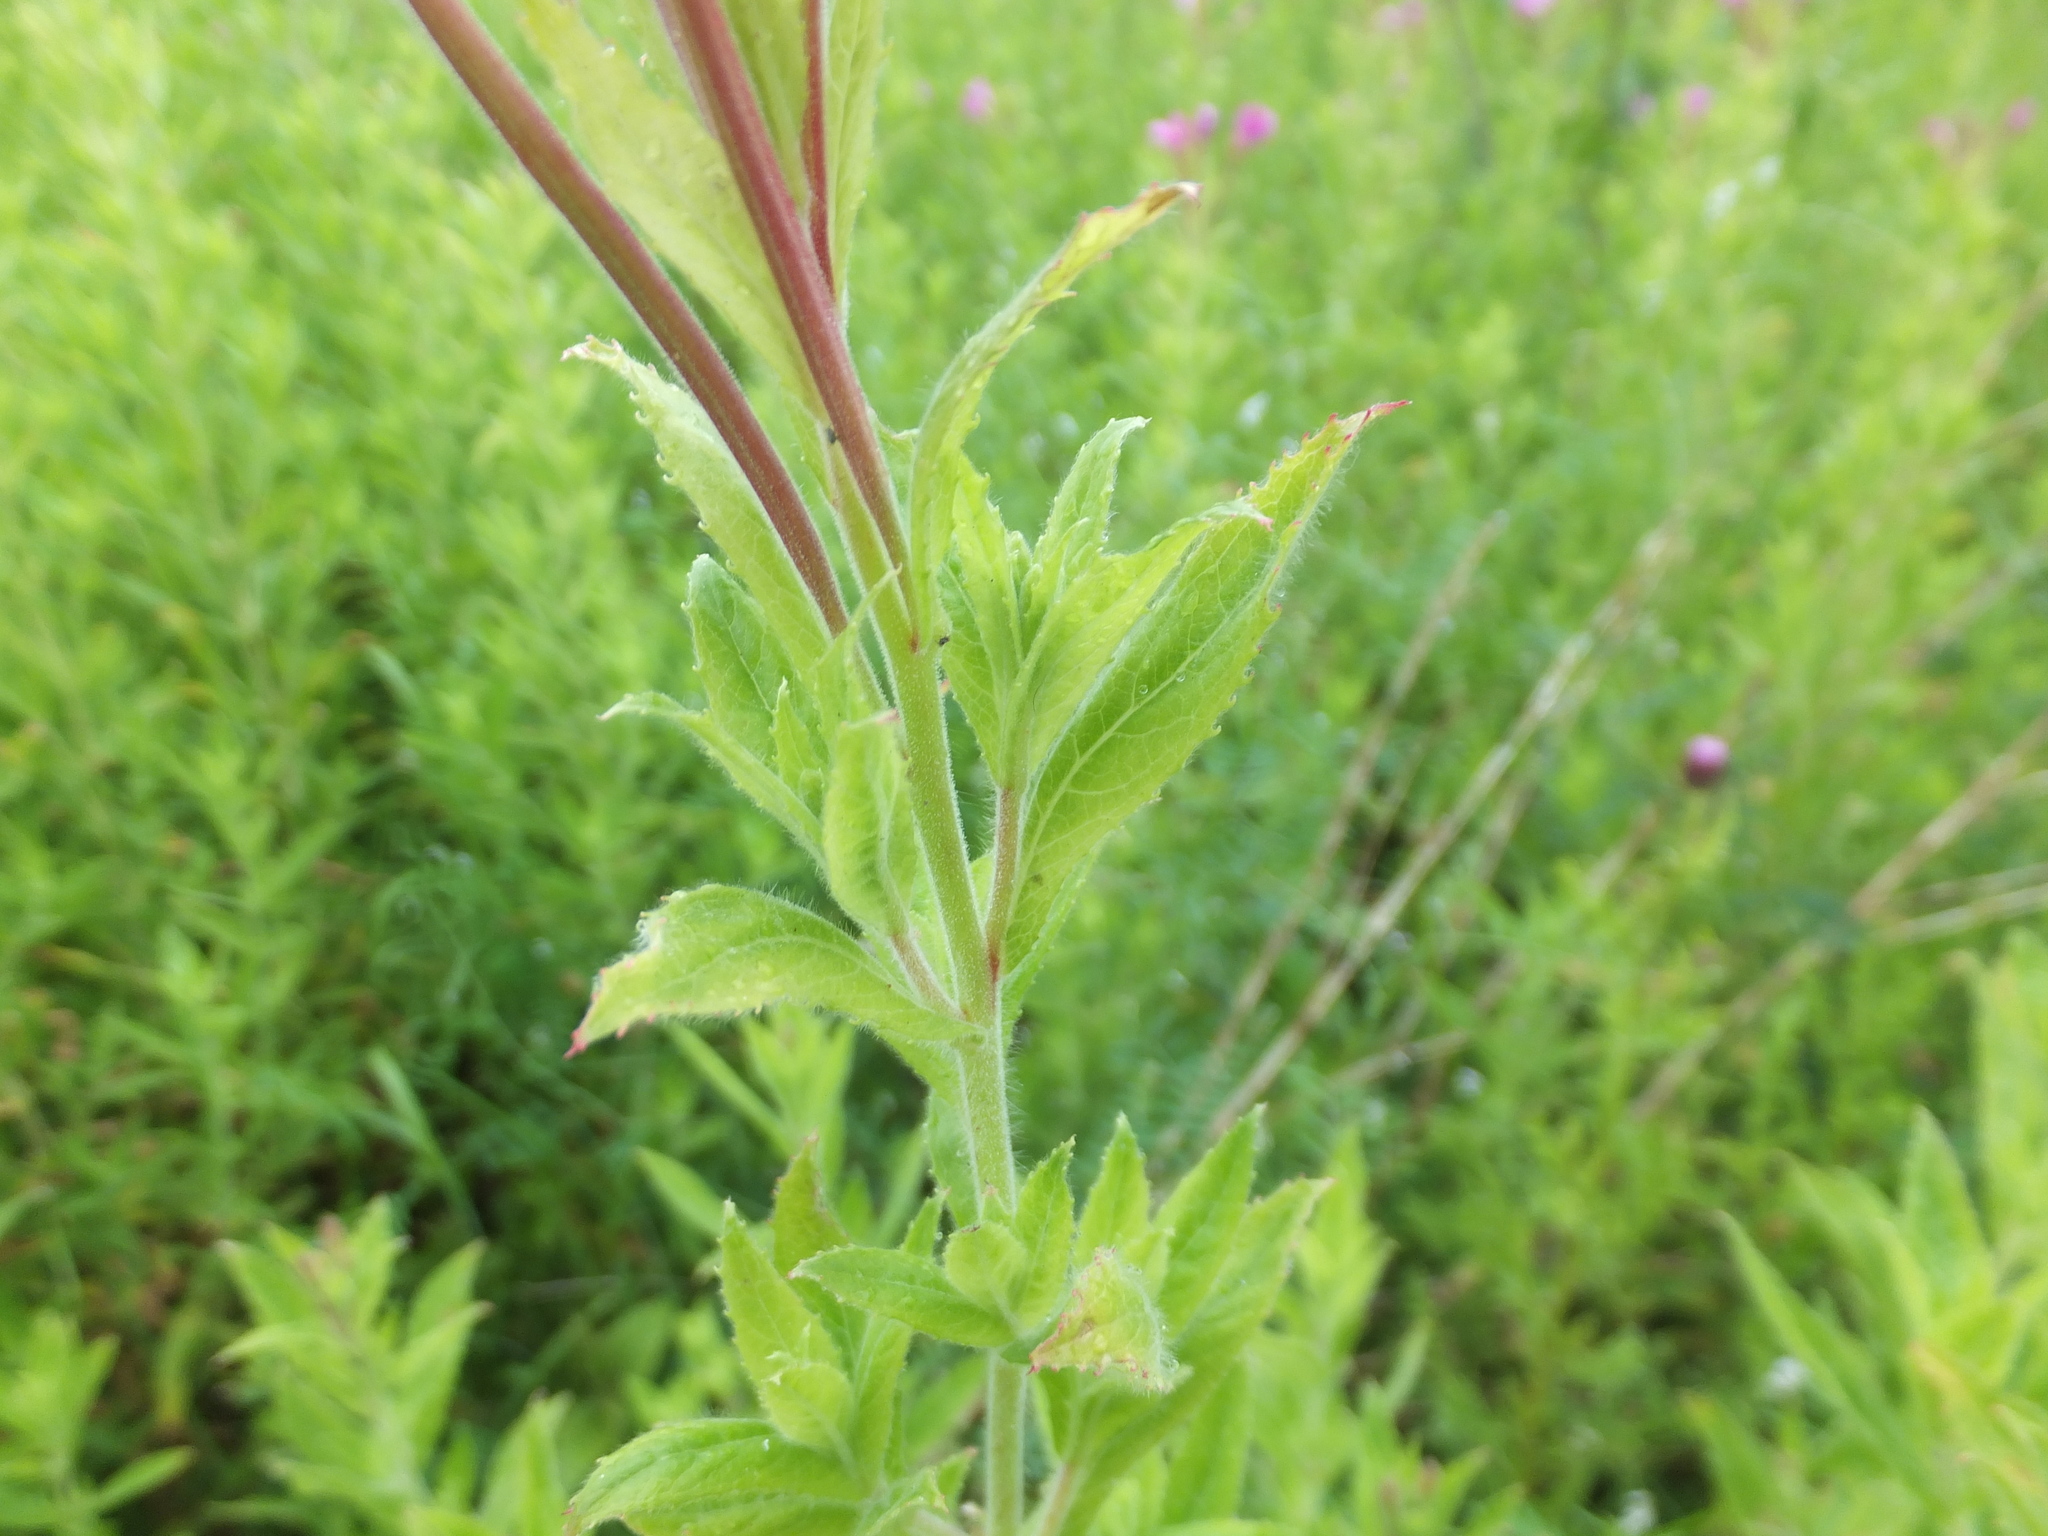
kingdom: Plantae
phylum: Tracheophyta
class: Magnoliopsida
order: Myrtales
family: Onagraceae
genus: Epilobium
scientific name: Epilobium hirsutum
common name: Great willowherb
